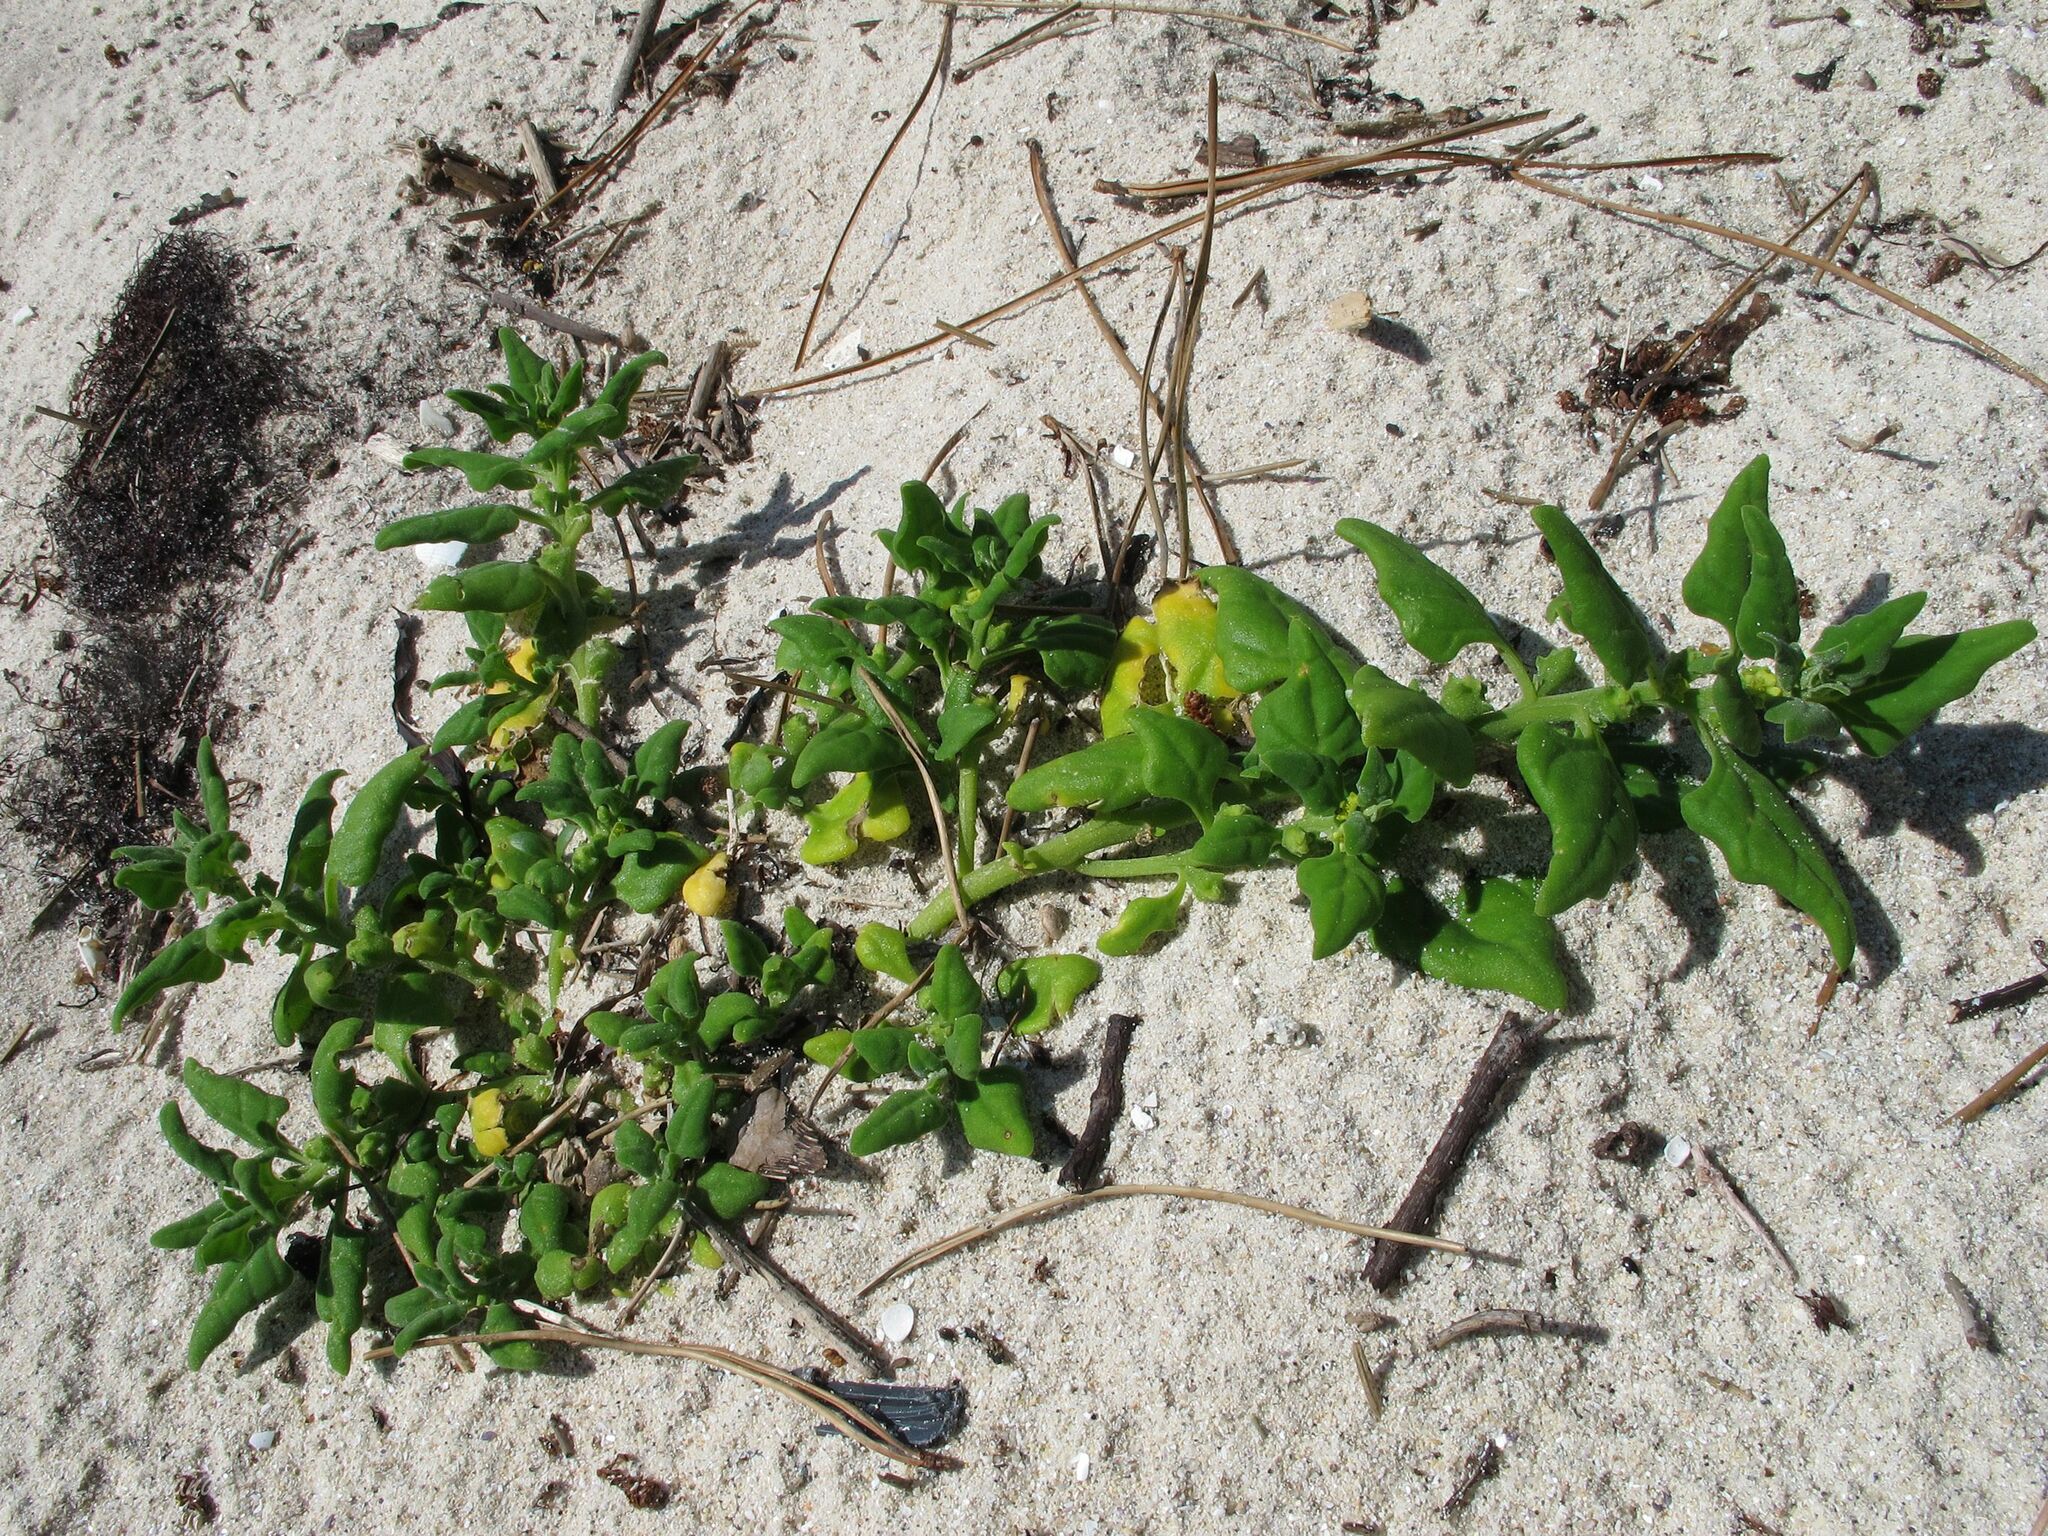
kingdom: Plantae
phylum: Tracheophyta
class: Magnoliopsida
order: Caryophyllales
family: Aizoaceae
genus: Tetragonia
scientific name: Tetragonia tetragonoides
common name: New zealand-spinach
